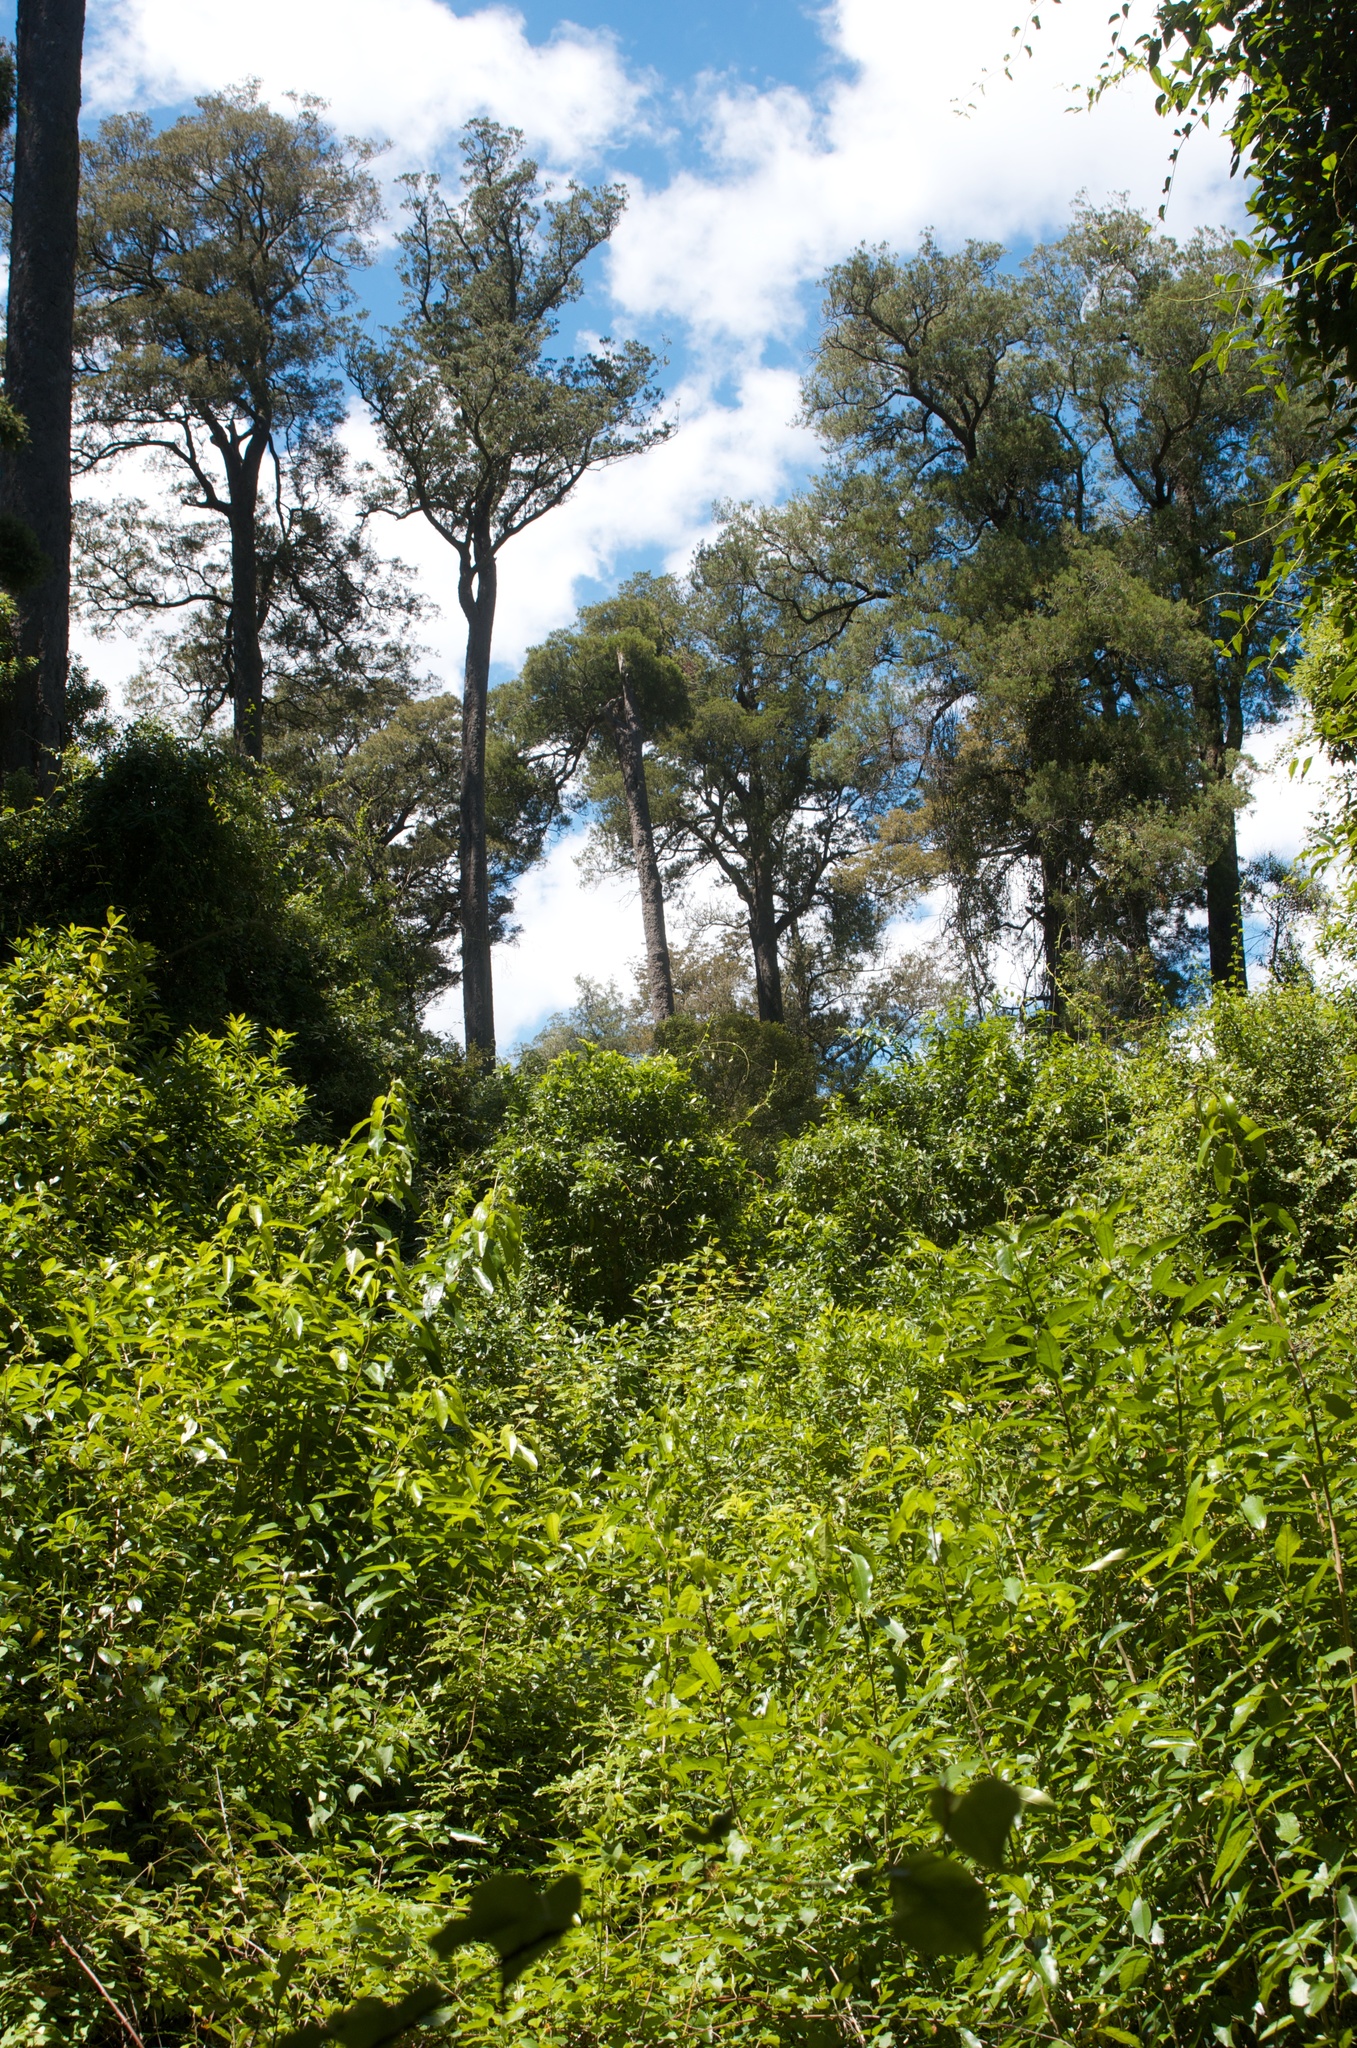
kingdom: Plantae
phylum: Tracheophyta
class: Pinopsida
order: Pinales
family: Podocarpaceae
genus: Dacrycarpus
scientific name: Dacrycarpus dacrydioides
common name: White pine
